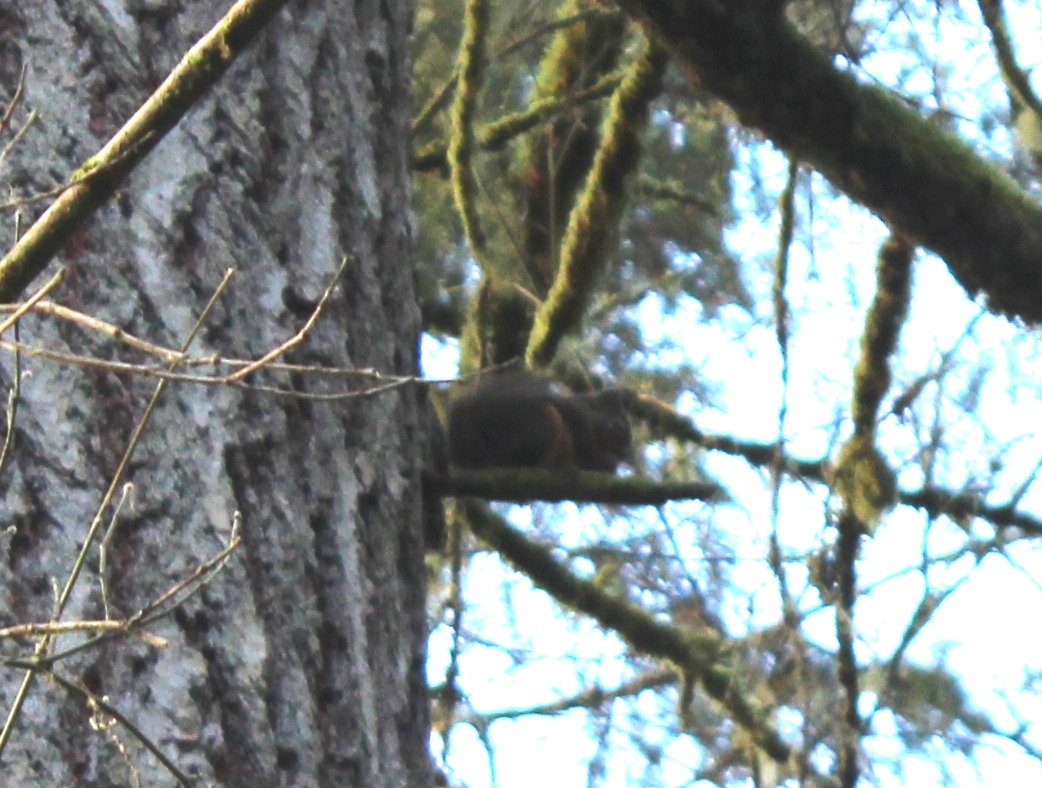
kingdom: Animalia
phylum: Chordata
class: Mammalia
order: Rodentia
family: Sciuridae
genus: Tamiasciurus
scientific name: Tamiasciurus douglasii
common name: Douglas's squirrel
